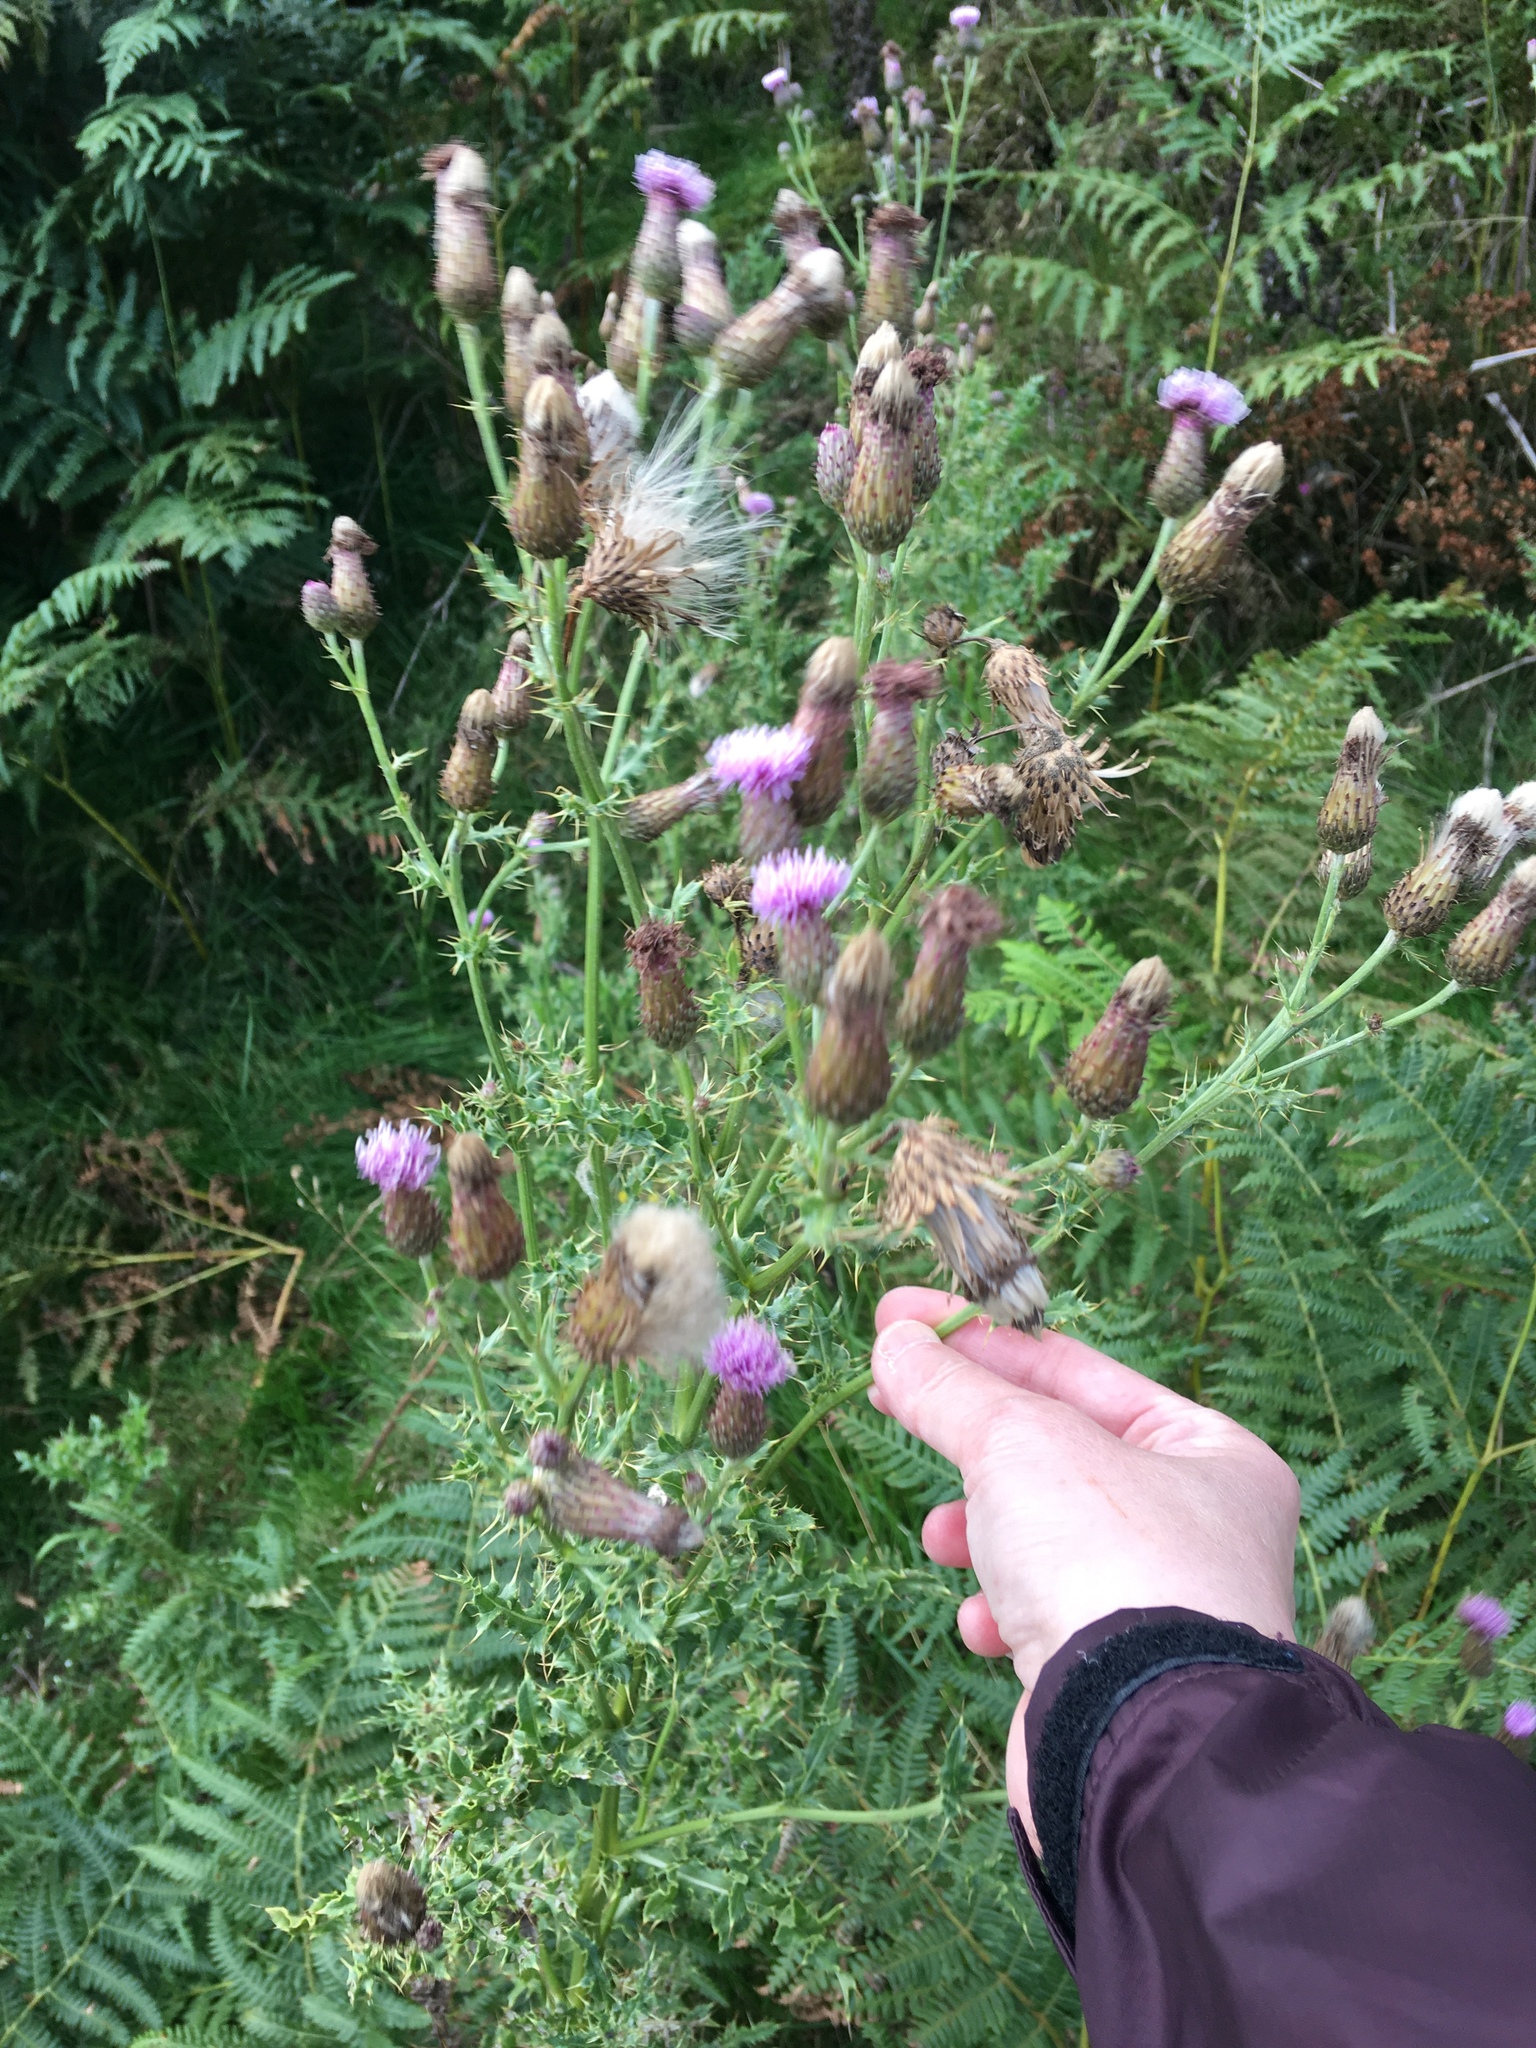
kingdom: Plantae
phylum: Tracheophyta
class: Magnoliopsida
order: Asterales
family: Asteraceae
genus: Cirsium
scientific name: Cirsium arvense
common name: Creeping thistle
